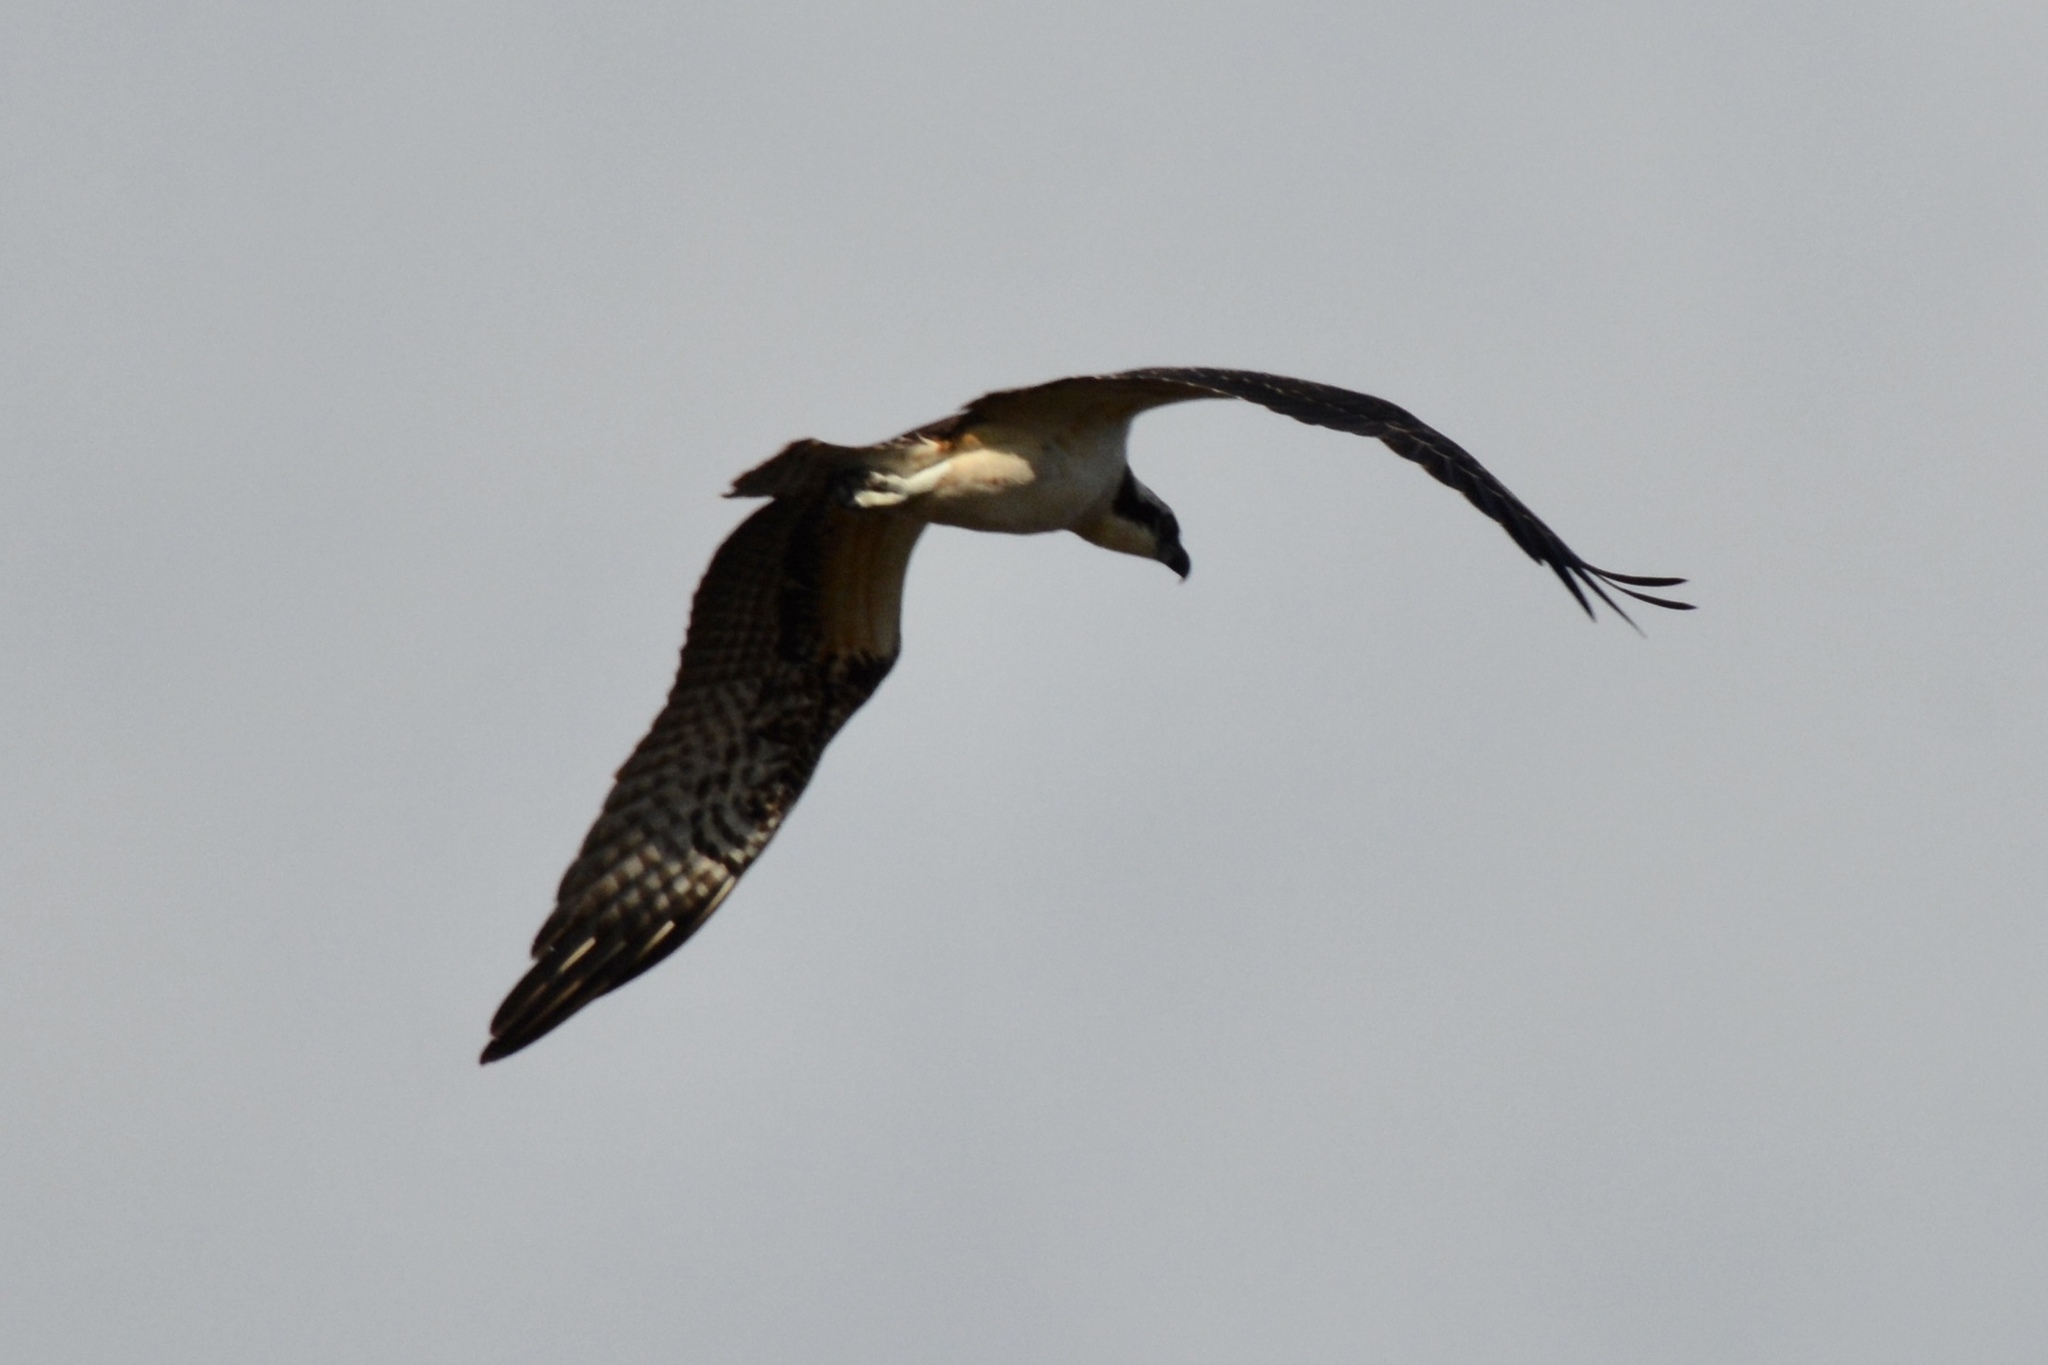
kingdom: Animalia
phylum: Chordata
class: Aves
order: Accipitriformes
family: Pandionidae
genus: Pandion
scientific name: Pandion haliaetus
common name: Osprey
